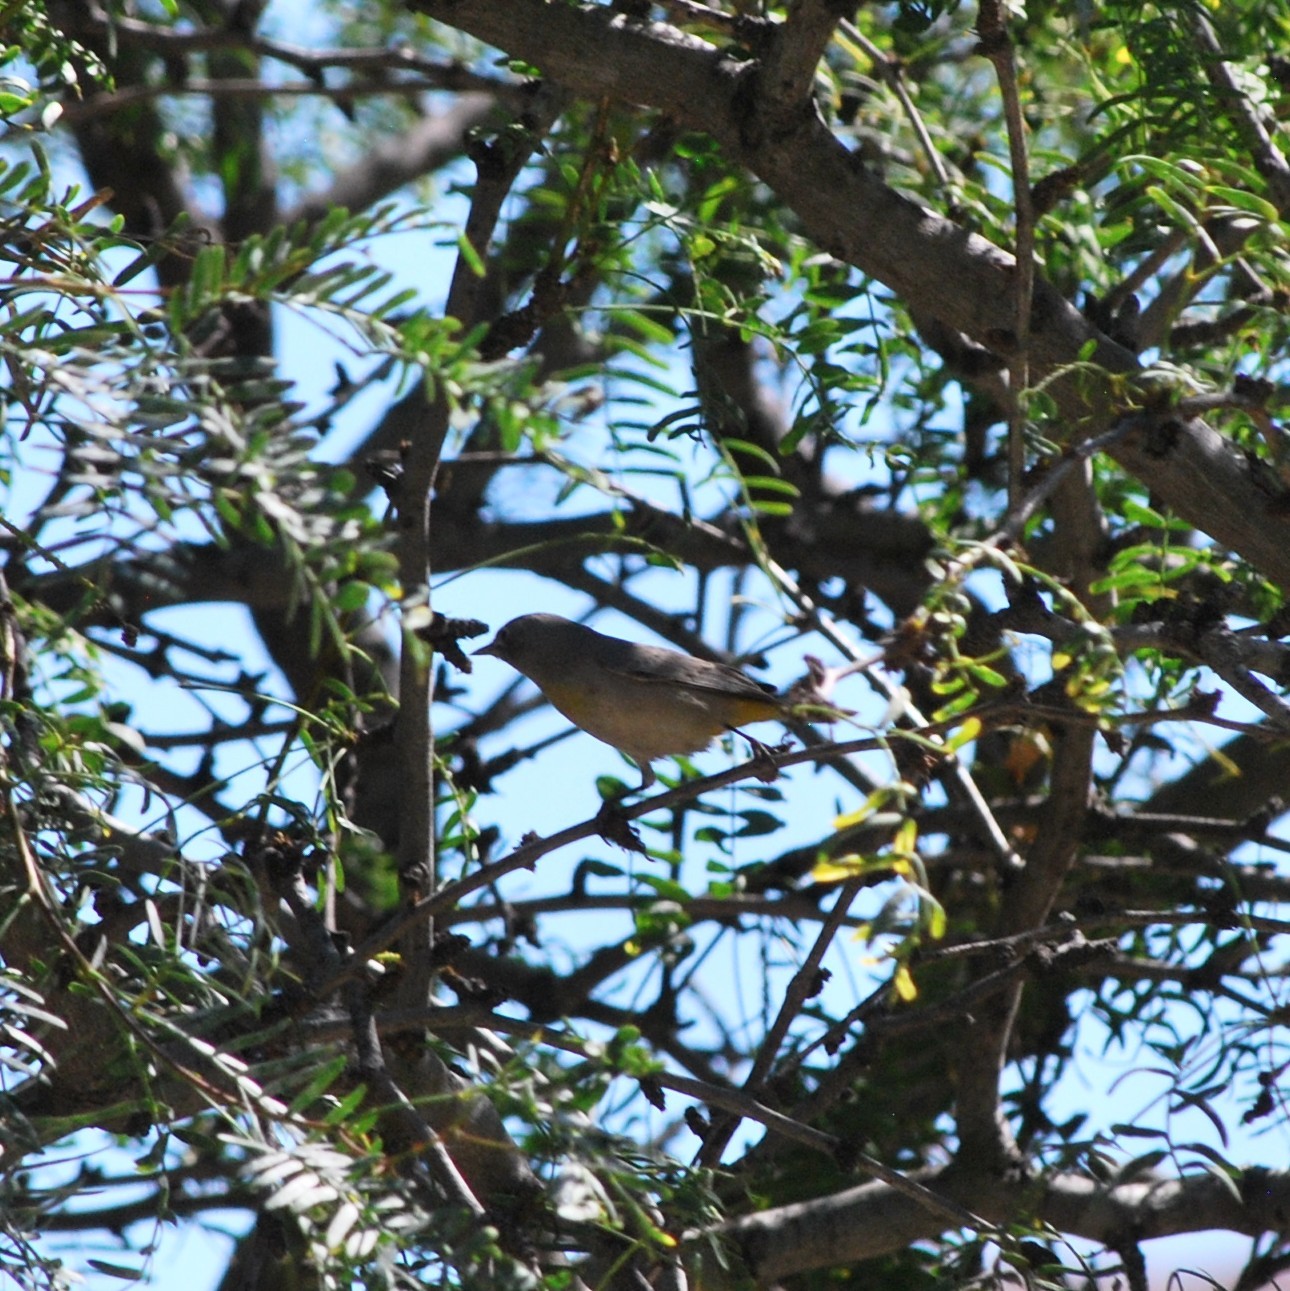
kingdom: Animalia
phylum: Chordata
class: Aves
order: Passeriformes
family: Parulidae
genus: Leiothlypis
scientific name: Leiothlypis virginiae
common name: Virginia's warbler
